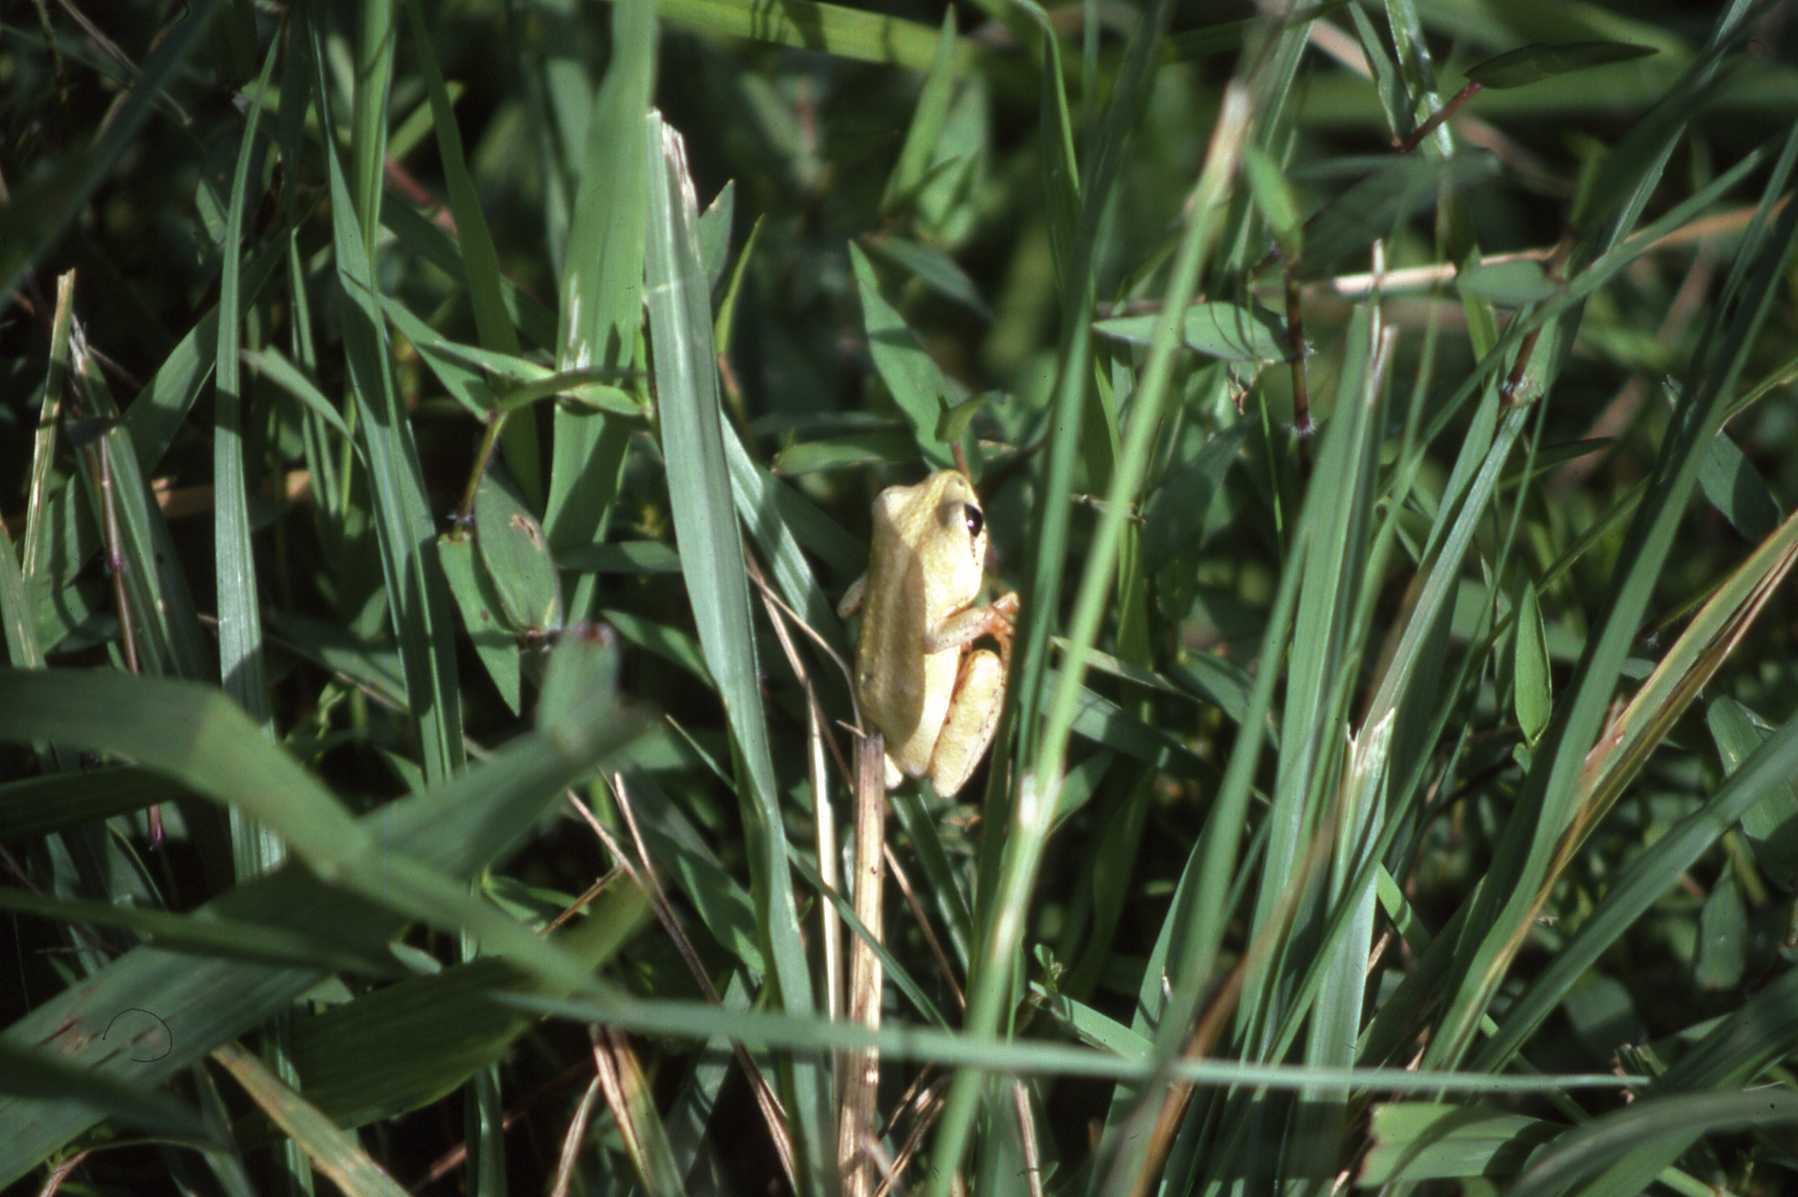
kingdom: Animalia
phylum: Chordata
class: Amphibia
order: Anura
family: Hyperoliidae
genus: Hyperolius
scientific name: Hyperolius viridiflavus
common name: Common reed frog
